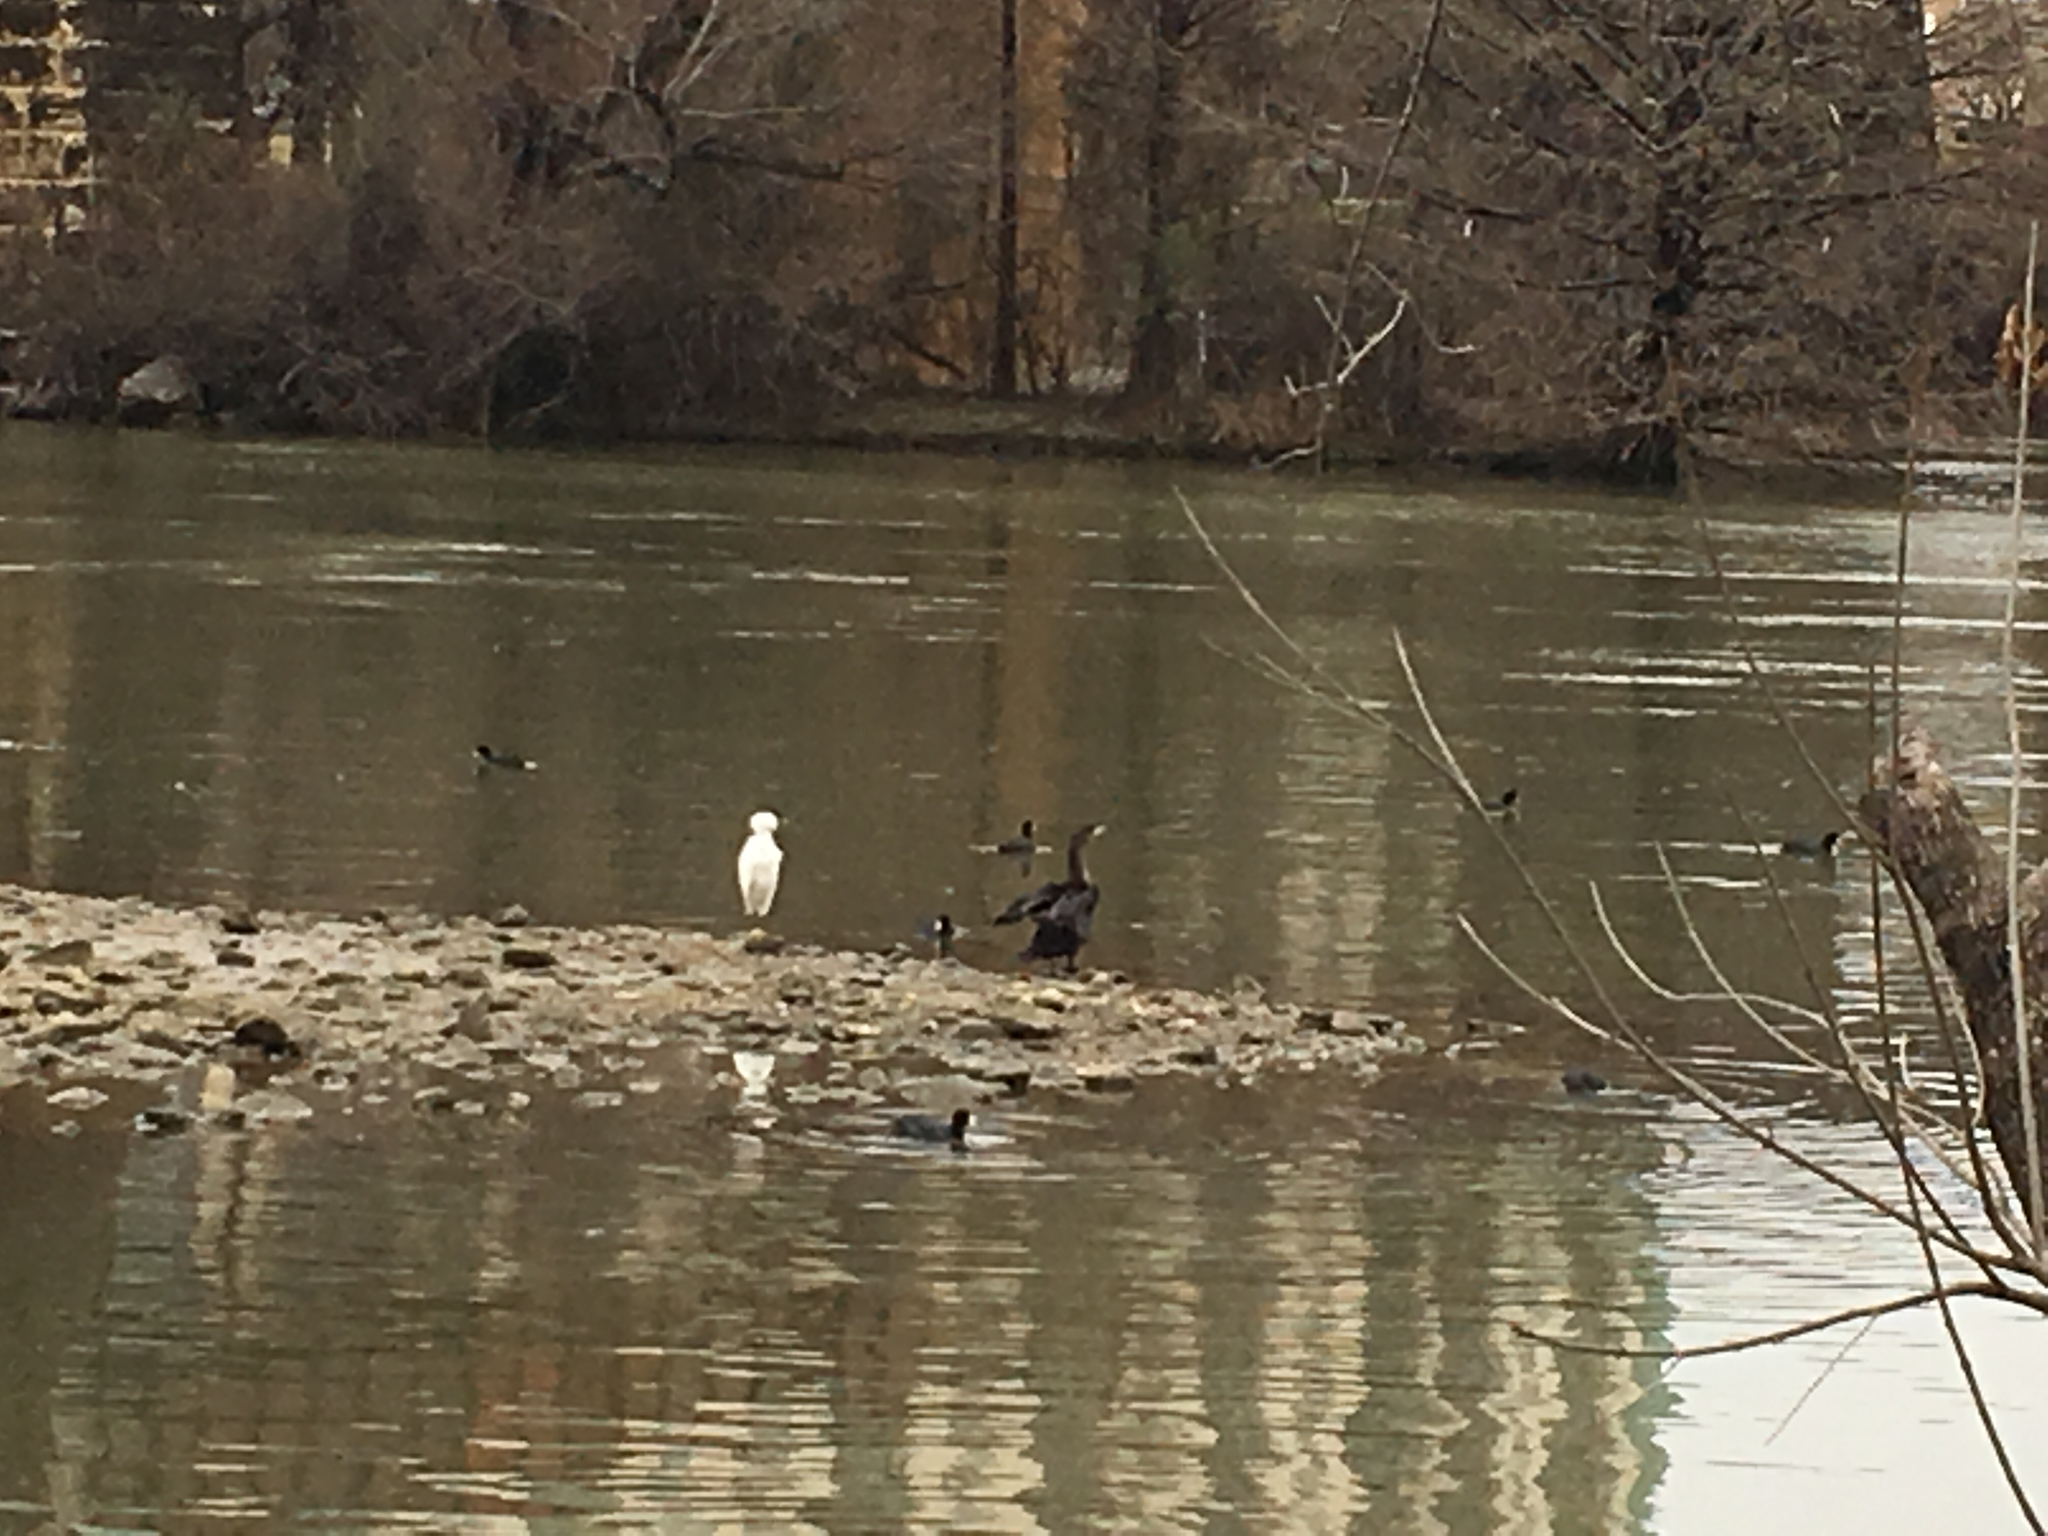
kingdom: Animalia
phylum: Chordata
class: Aves
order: Pelecaniformes
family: Ardeidae
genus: Egretta
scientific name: Egretta thula
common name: Snowy egret
